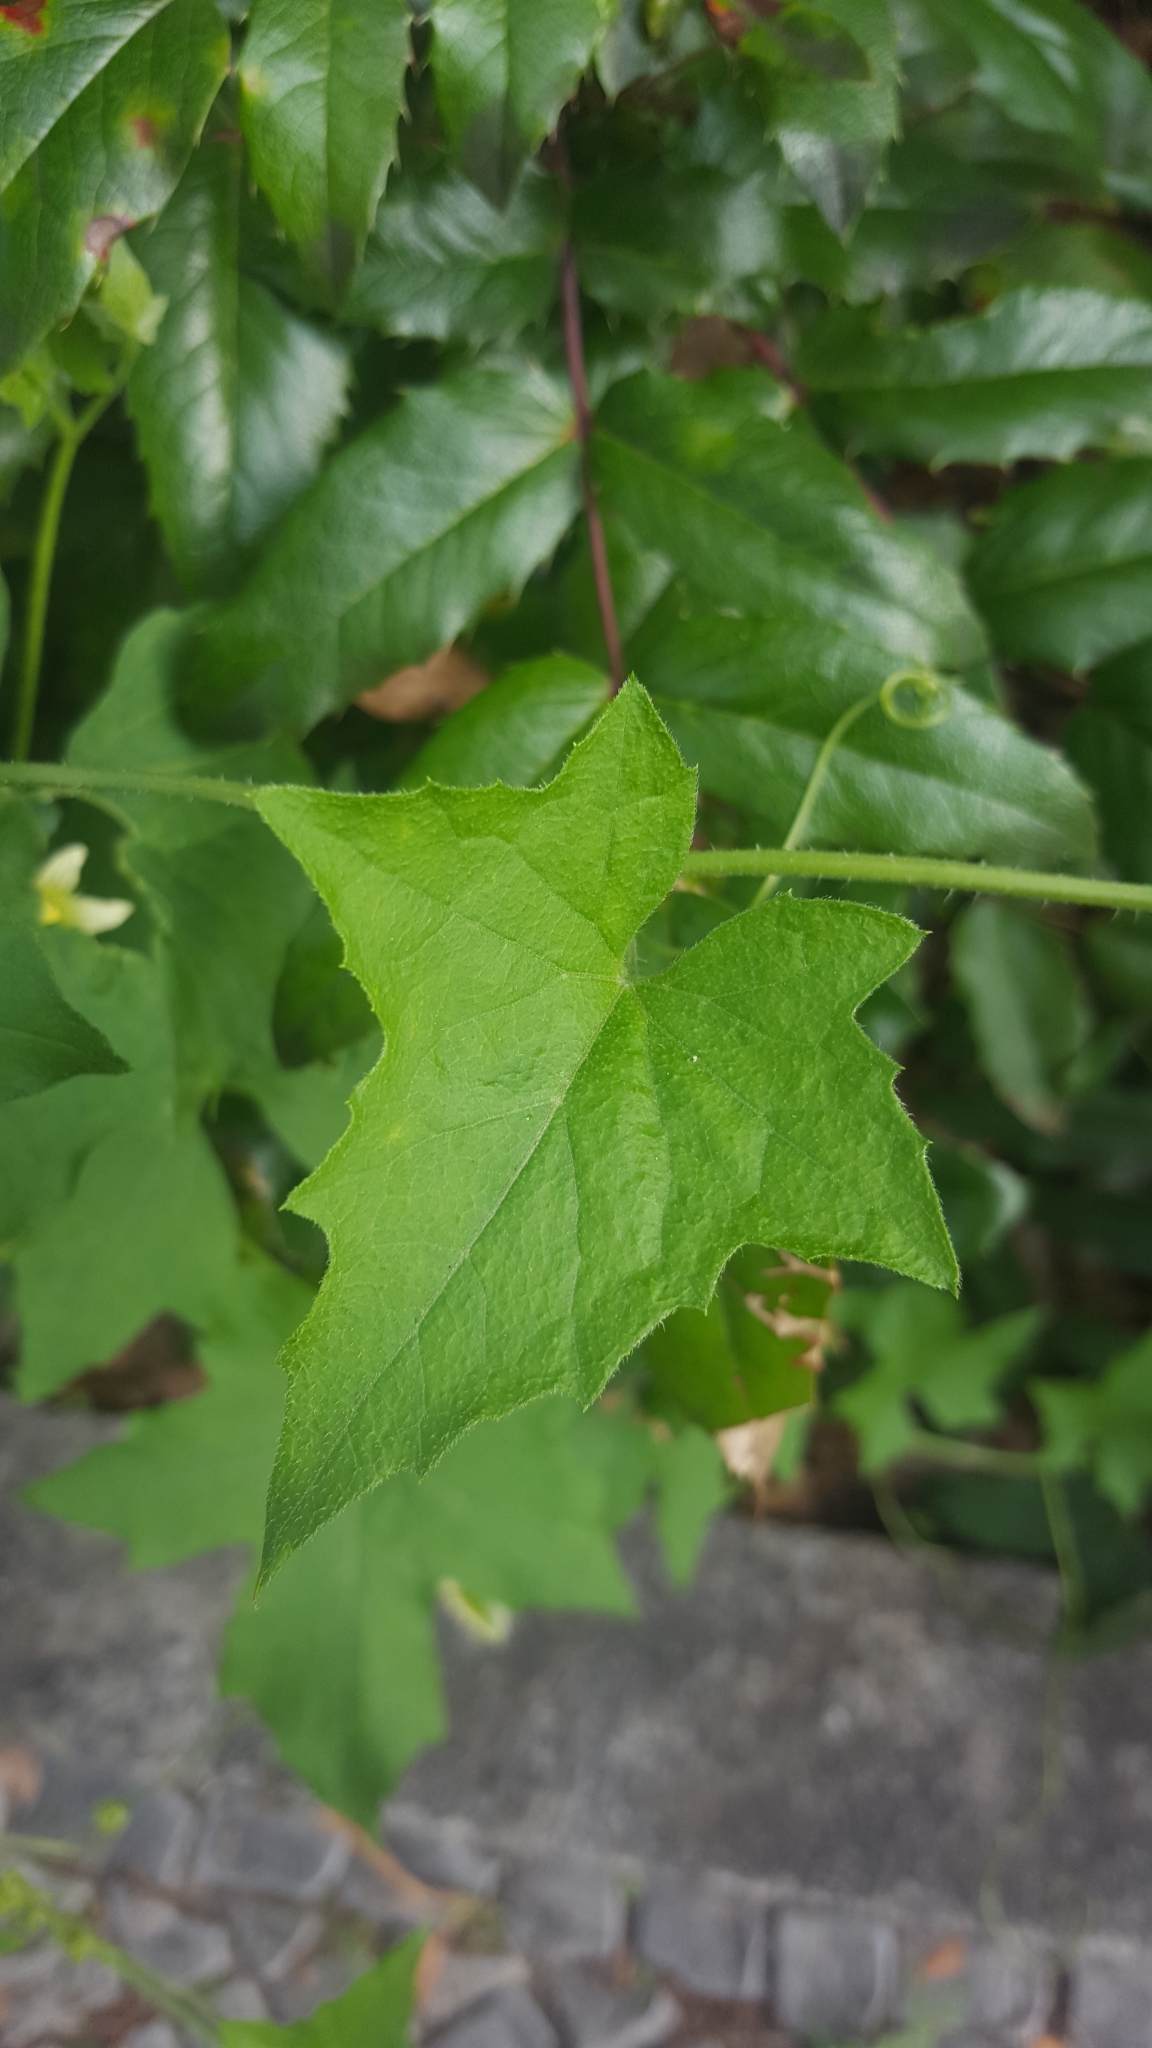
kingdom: Plantae
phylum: Tracheophyta
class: Magnoliopsida
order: Cucurbitales
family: Cucurbitaceae
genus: Bryonia
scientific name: Bryonia cretica
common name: Cretan bryony
